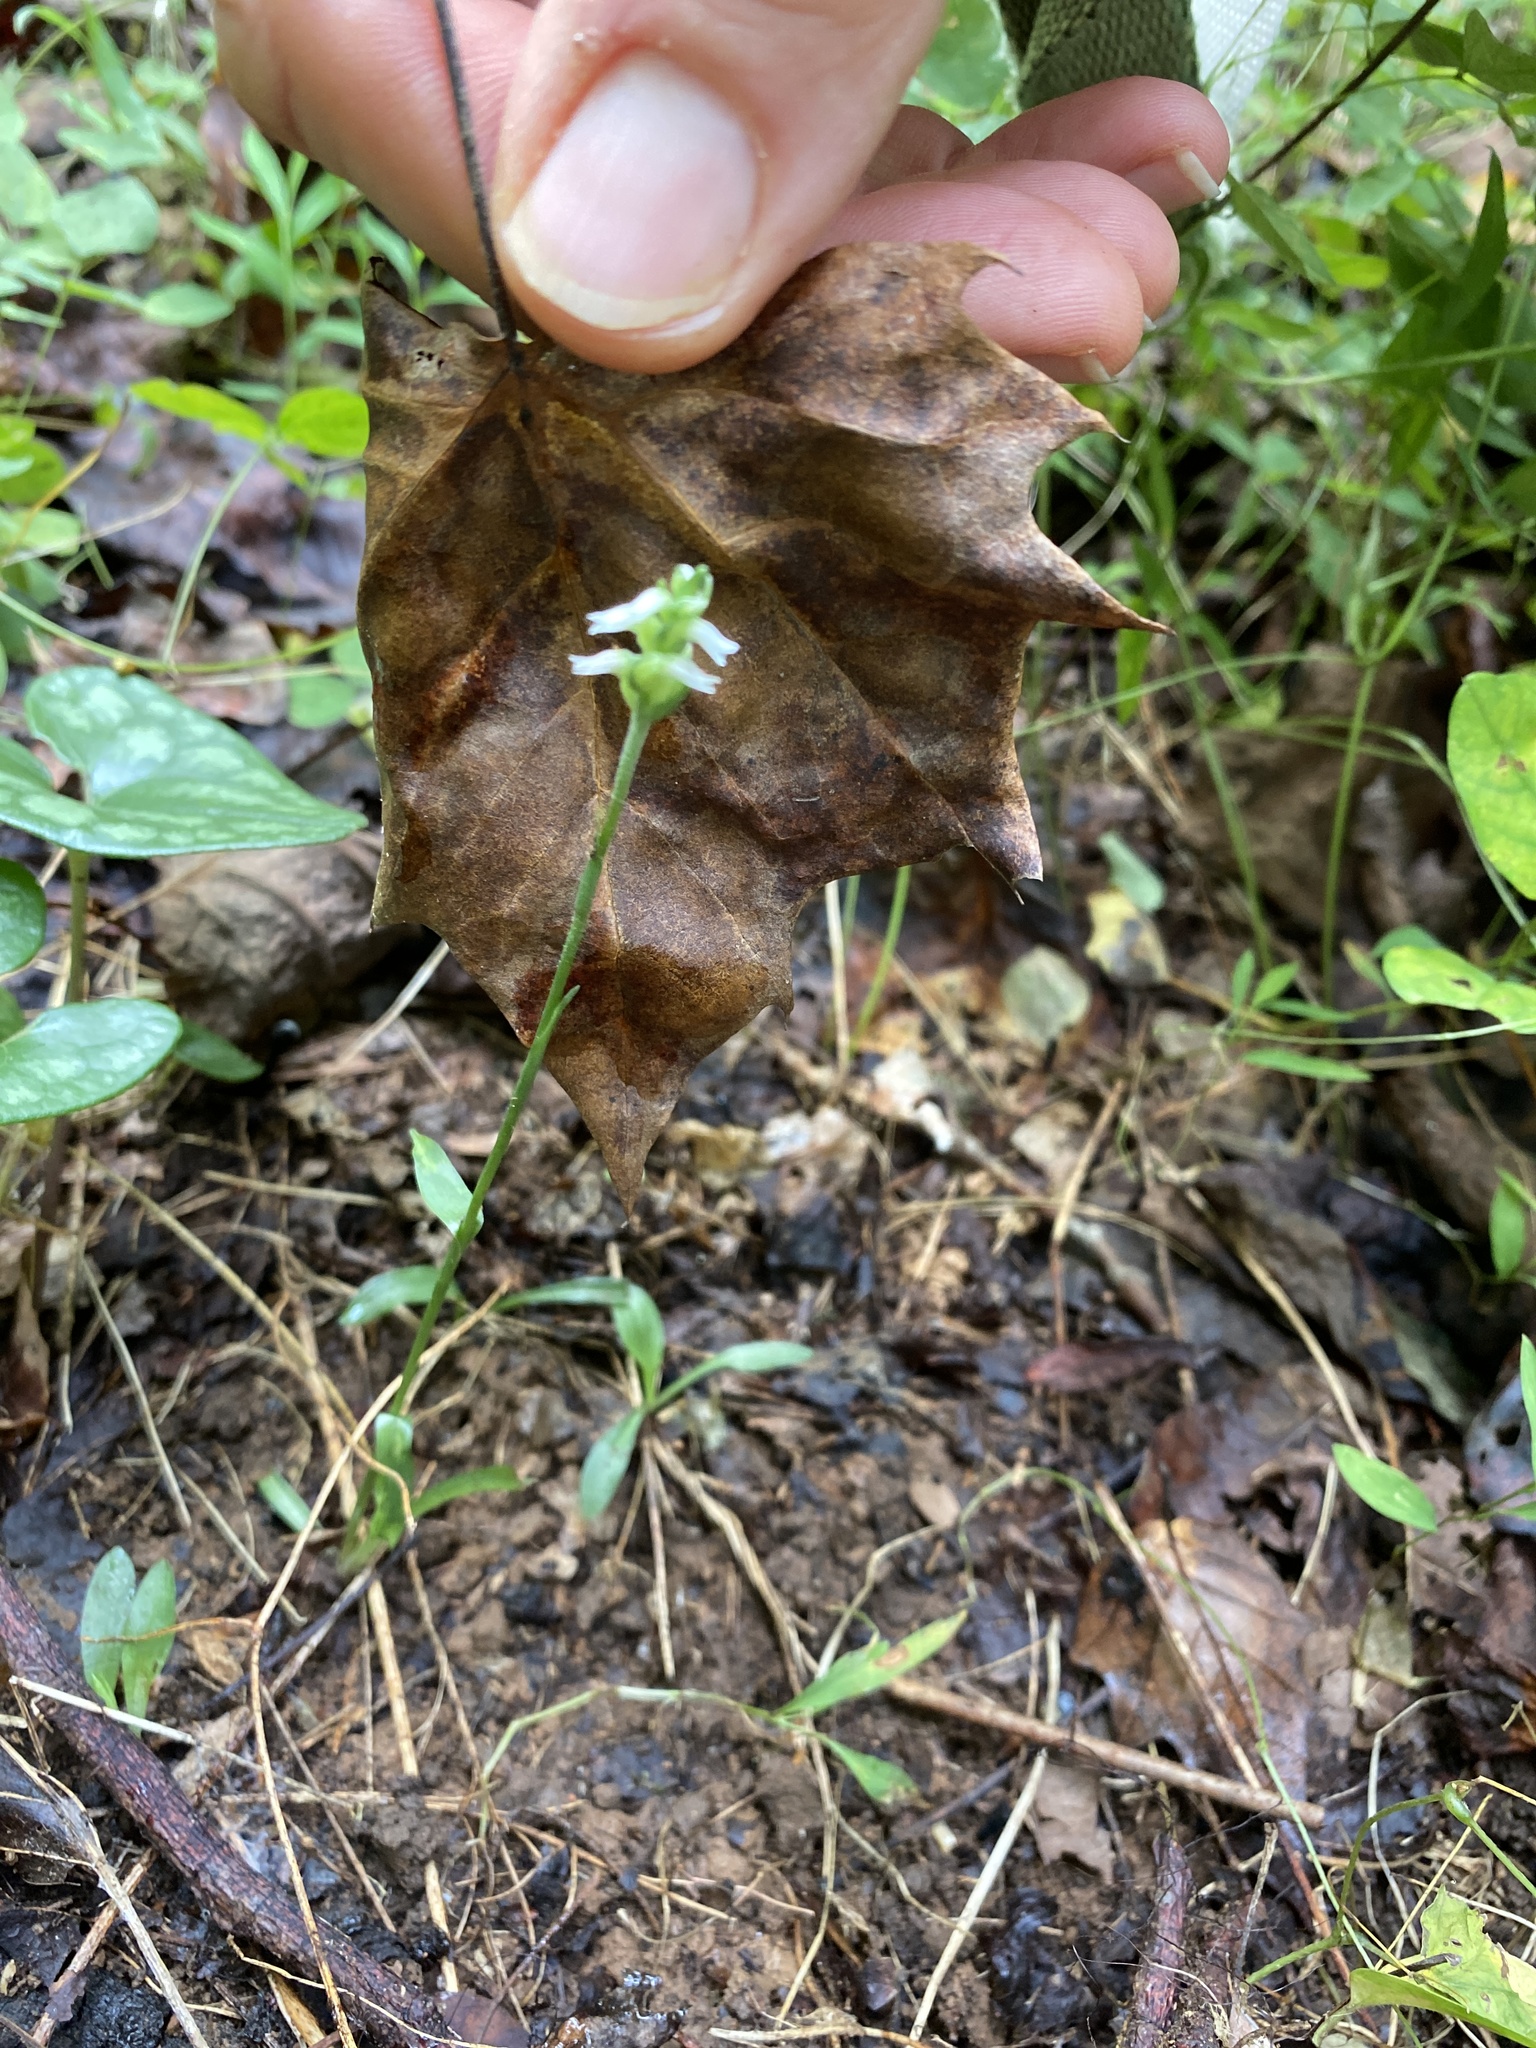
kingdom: Plantae
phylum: Tracheophyta
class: Liliopsida
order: Asparagales
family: Orchidaceae
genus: Spiranthes
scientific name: Spiranthes ovalis
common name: October ladies'-tresses
